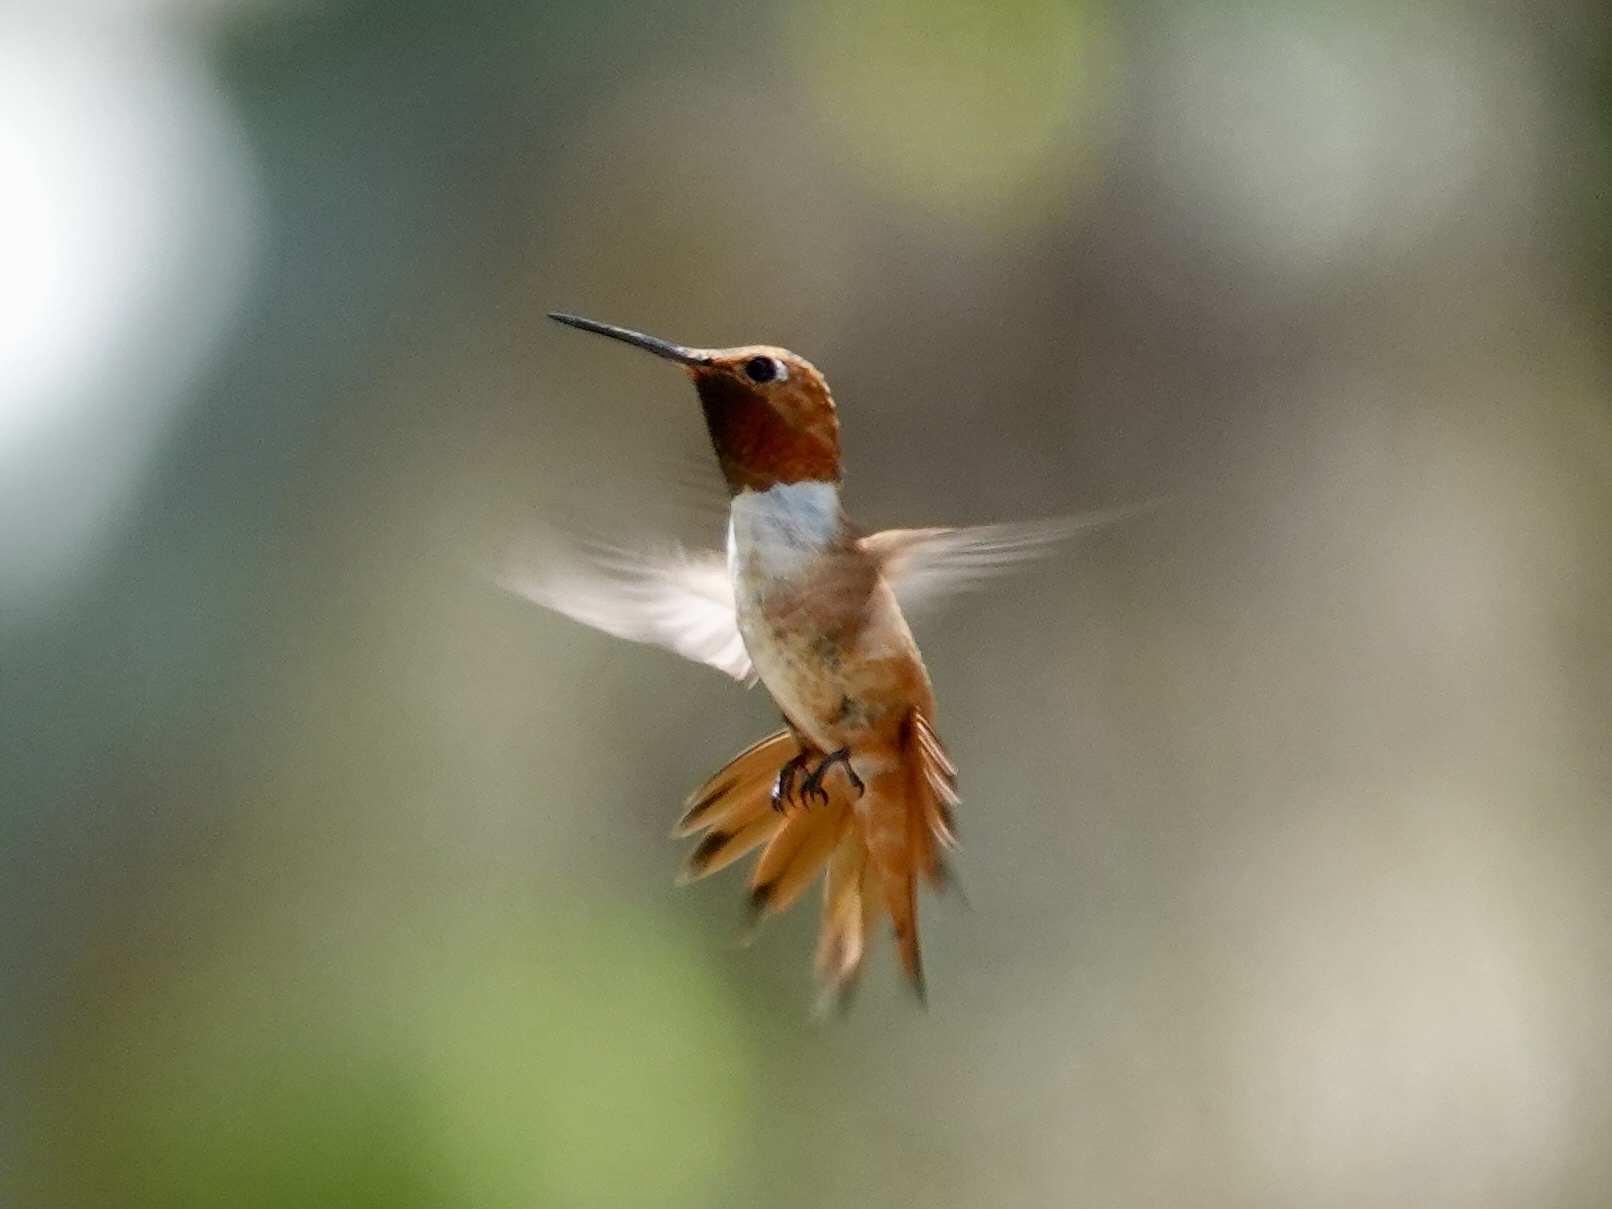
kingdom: Animalia
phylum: Chordata
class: Aves
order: Apodiformes
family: Trochilidae
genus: Selasphorus
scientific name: Selasphorus rufus
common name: Rufous hummingbird
